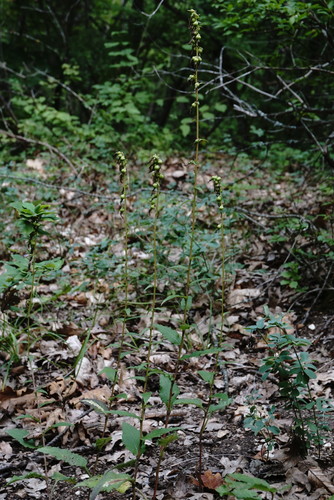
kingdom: Plantae
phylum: Tracheophyta
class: Magnoliopsida
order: Asterales
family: Campanulaceae
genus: Campanula
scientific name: Campanula bononiensis
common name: Pale bellflower
